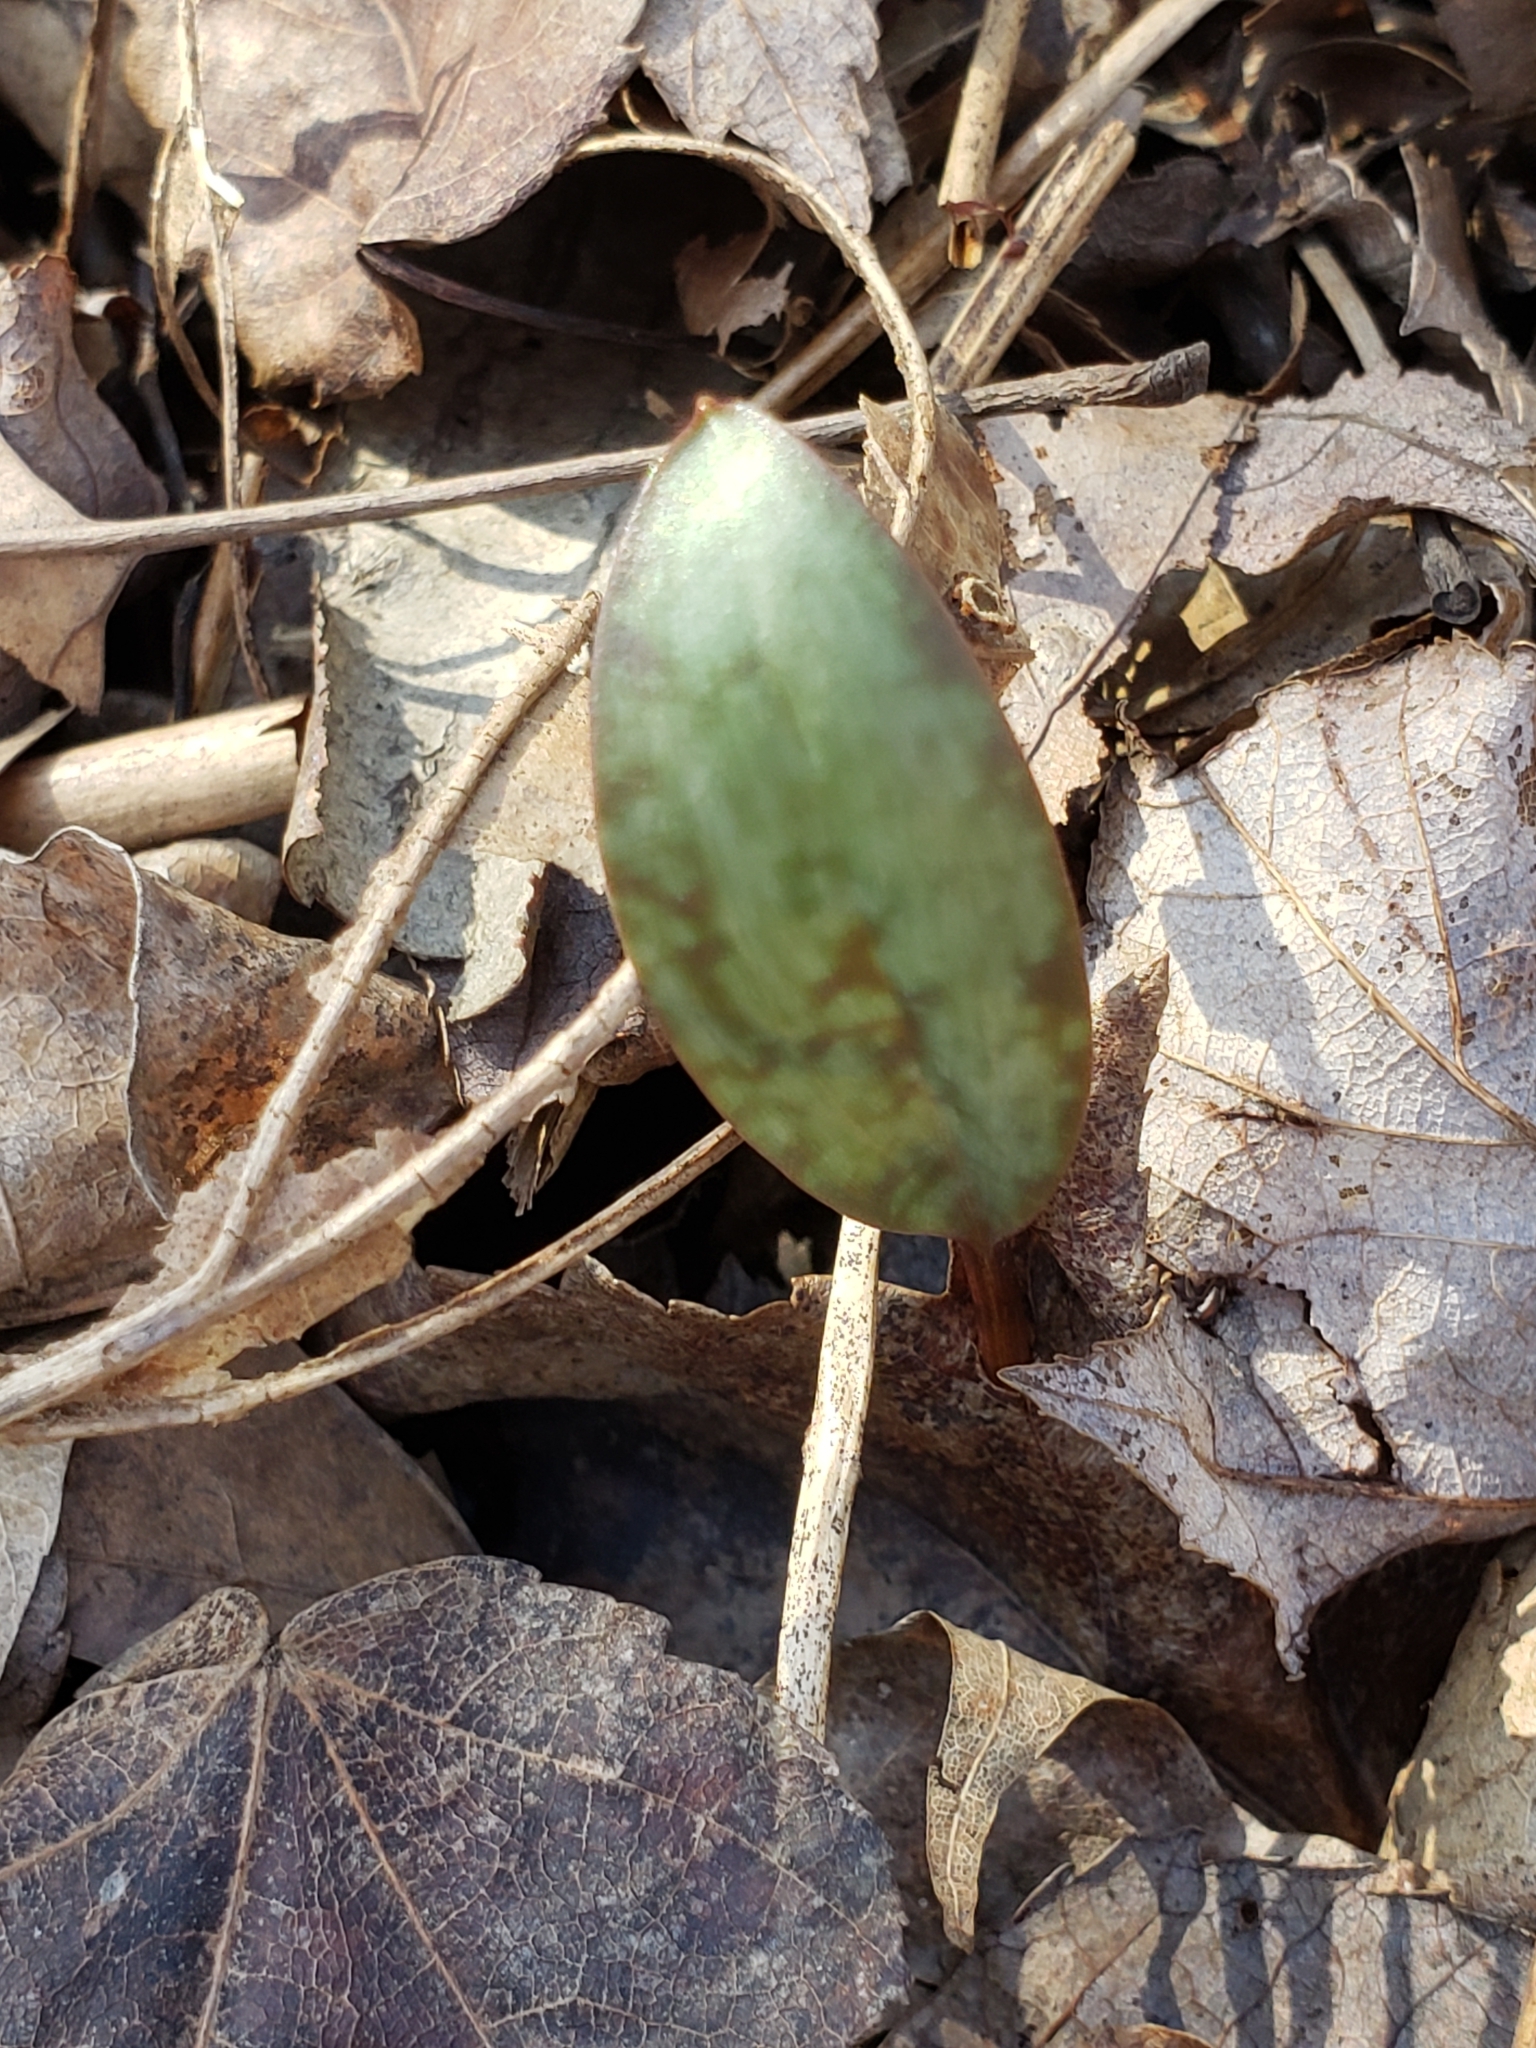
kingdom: Plantae
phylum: Tracheophyta
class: Liliopsida
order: Liliales
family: Liliaceae
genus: Erythronium
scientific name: Erythronium americanum
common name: Yellow adder's-tongue
